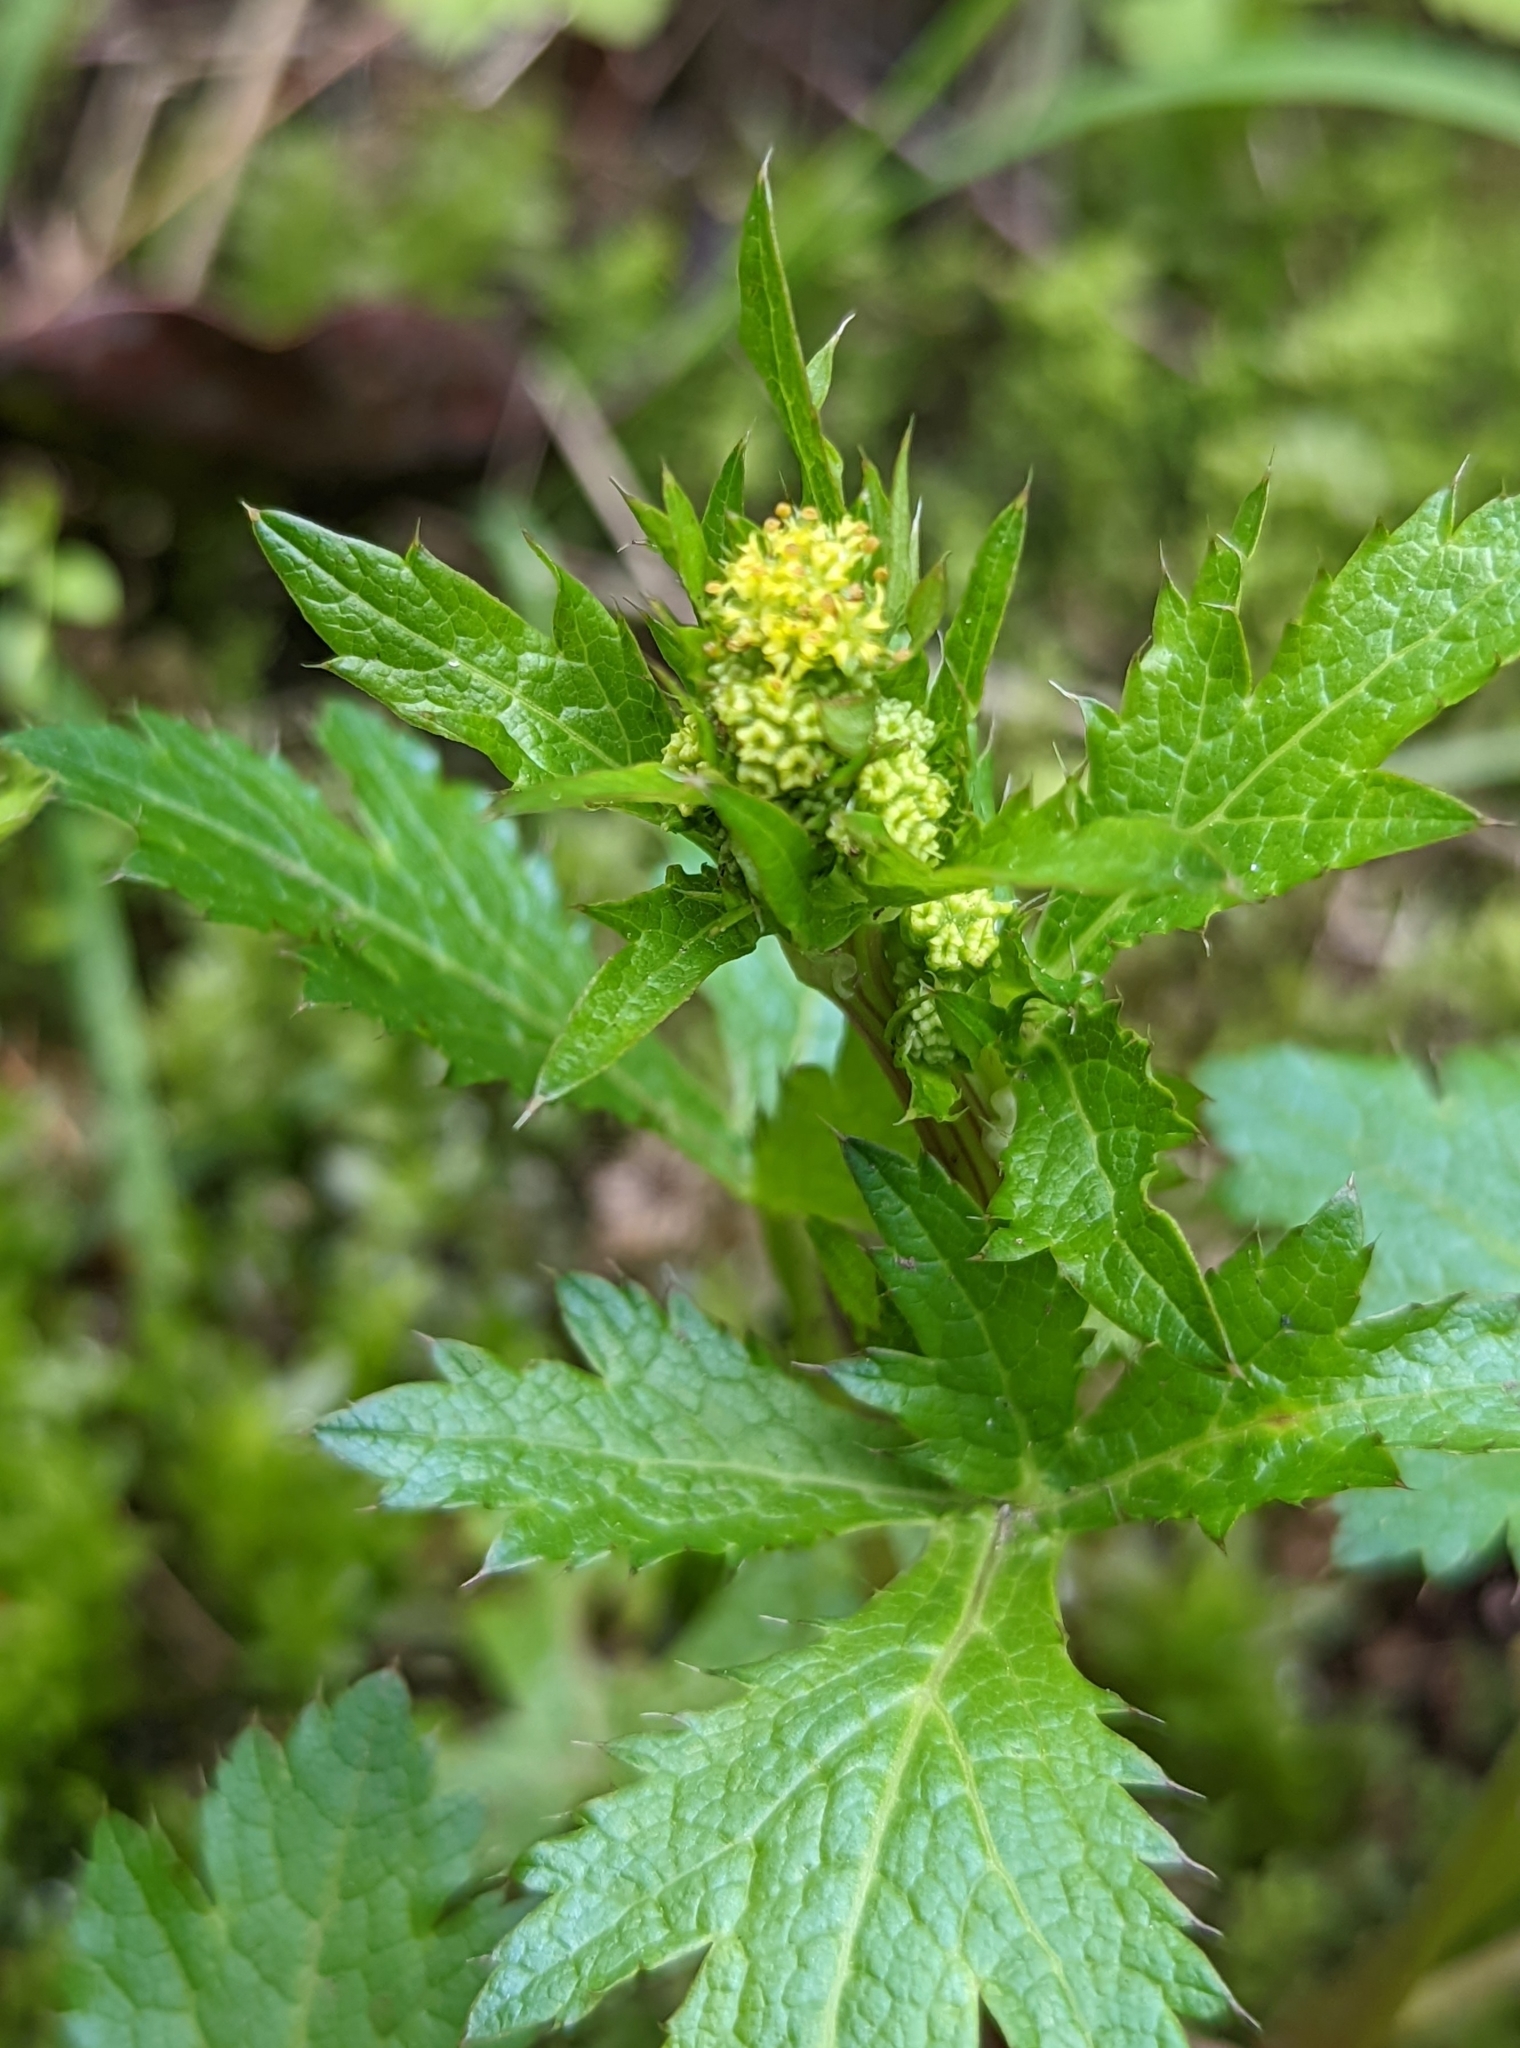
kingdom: Plantae
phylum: Tracheophyta
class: Magnoliopsida
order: Apiales
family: Apiaceae
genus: Sanicula
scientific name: Sanicula crassicaulis
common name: Western snakeroot
